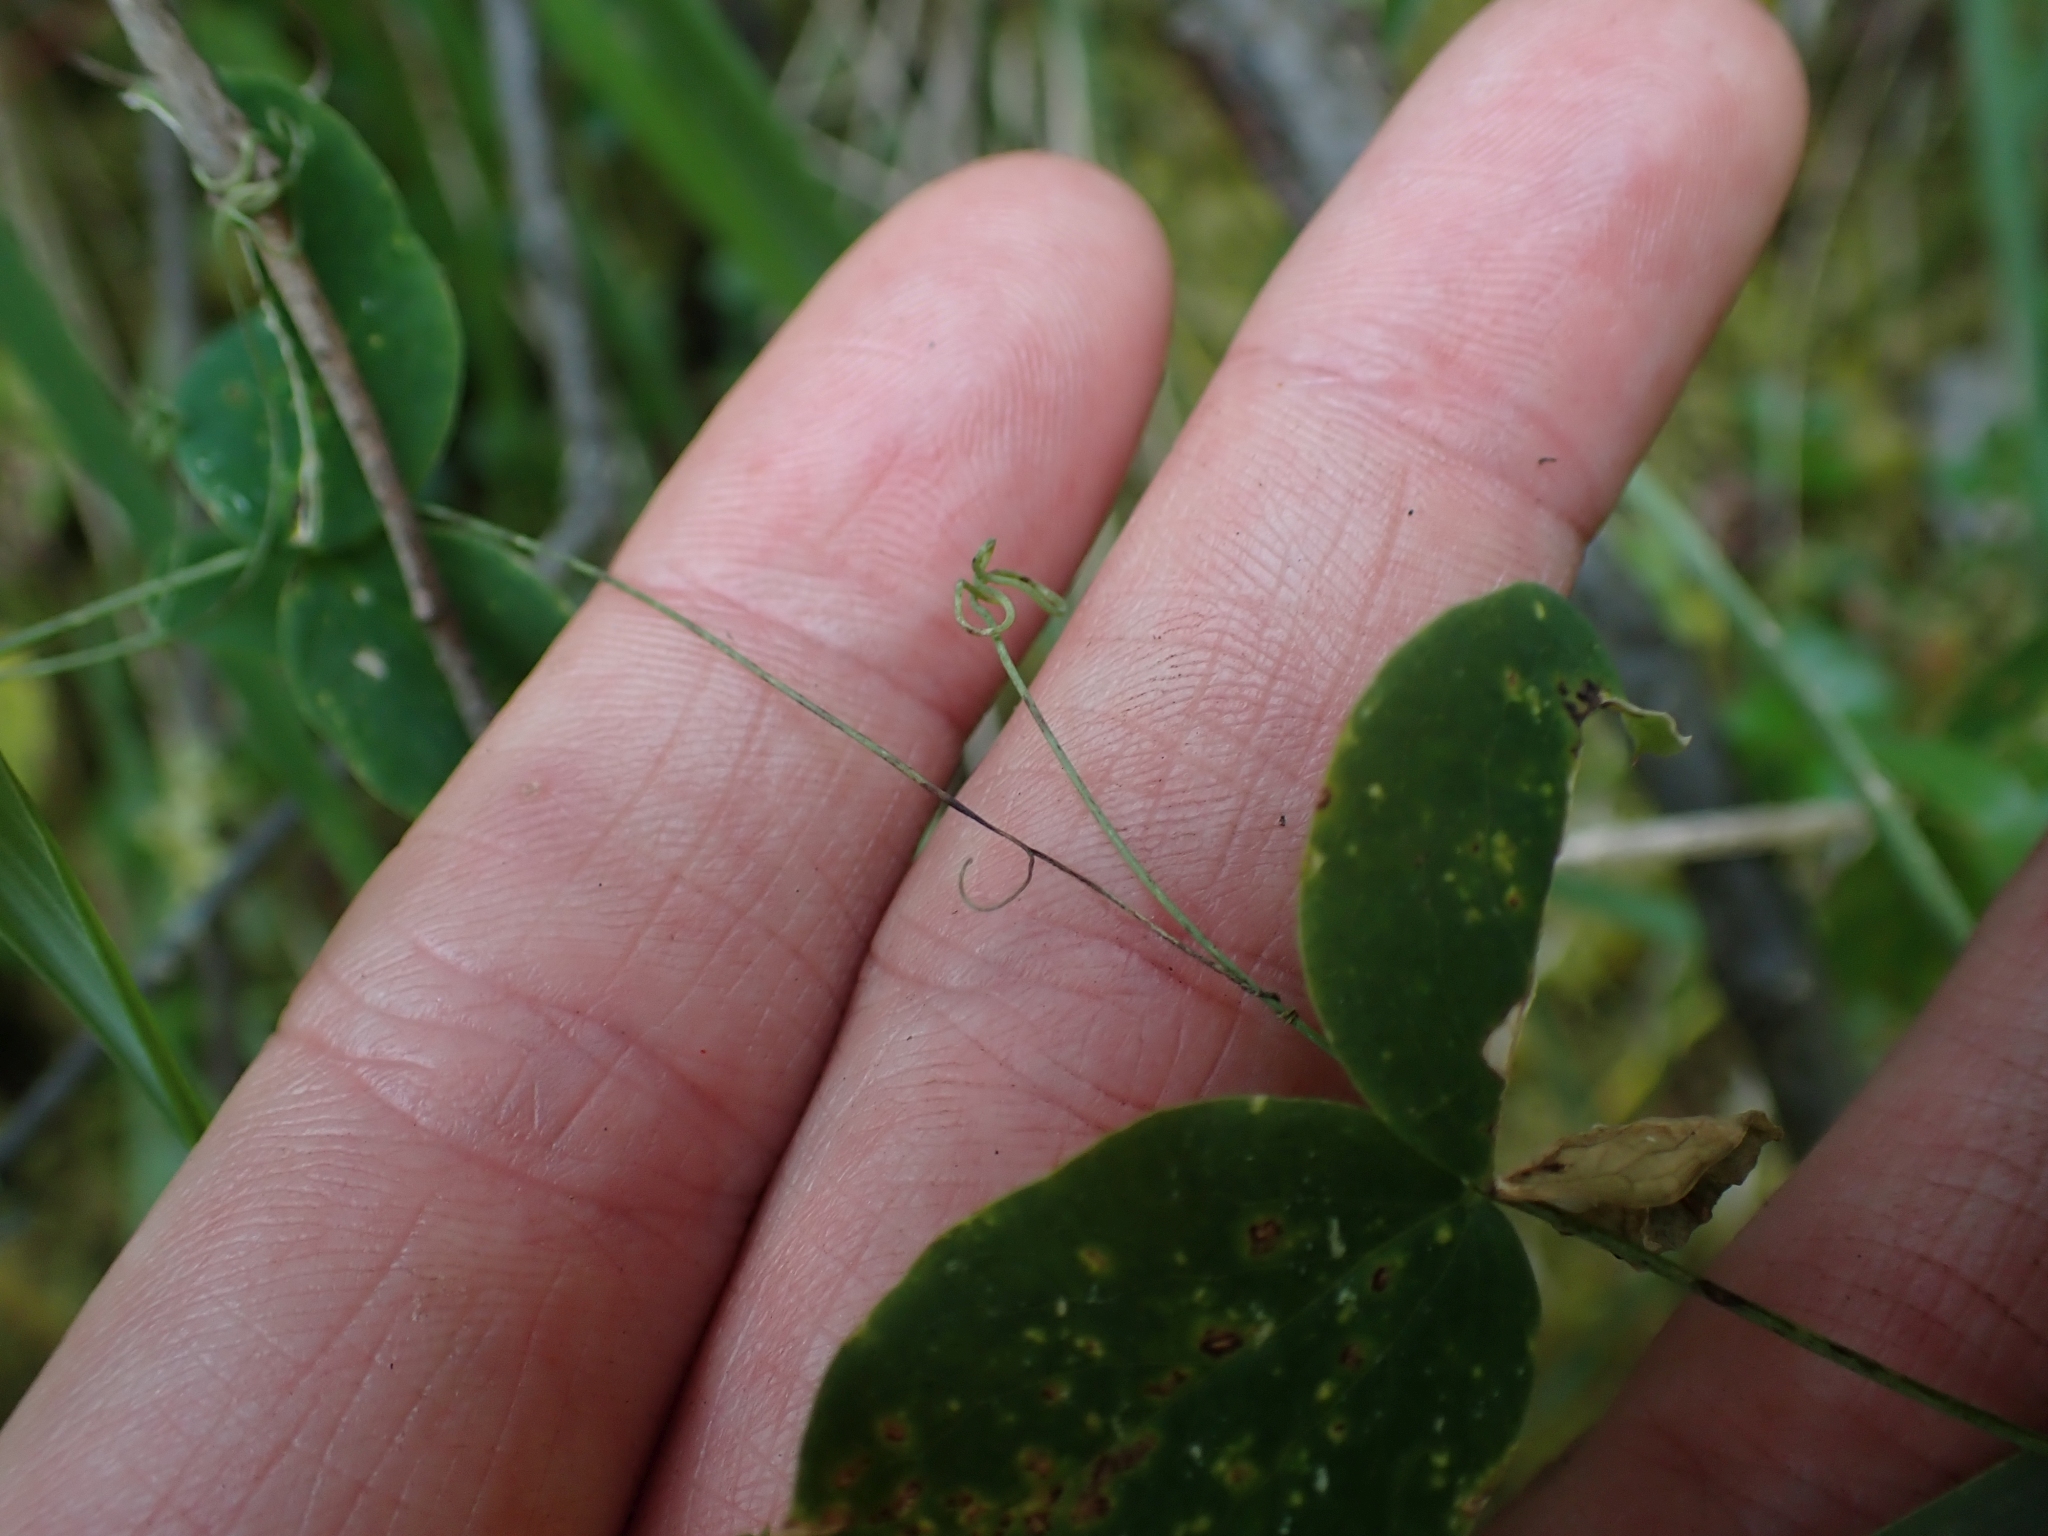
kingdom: Plantae
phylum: Tracheophyta
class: Magnoliopsida
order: Fabales
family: Fabaceae
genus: Lathyrus
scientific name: Lathyrus ochroleucus
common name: Pale vetchling
